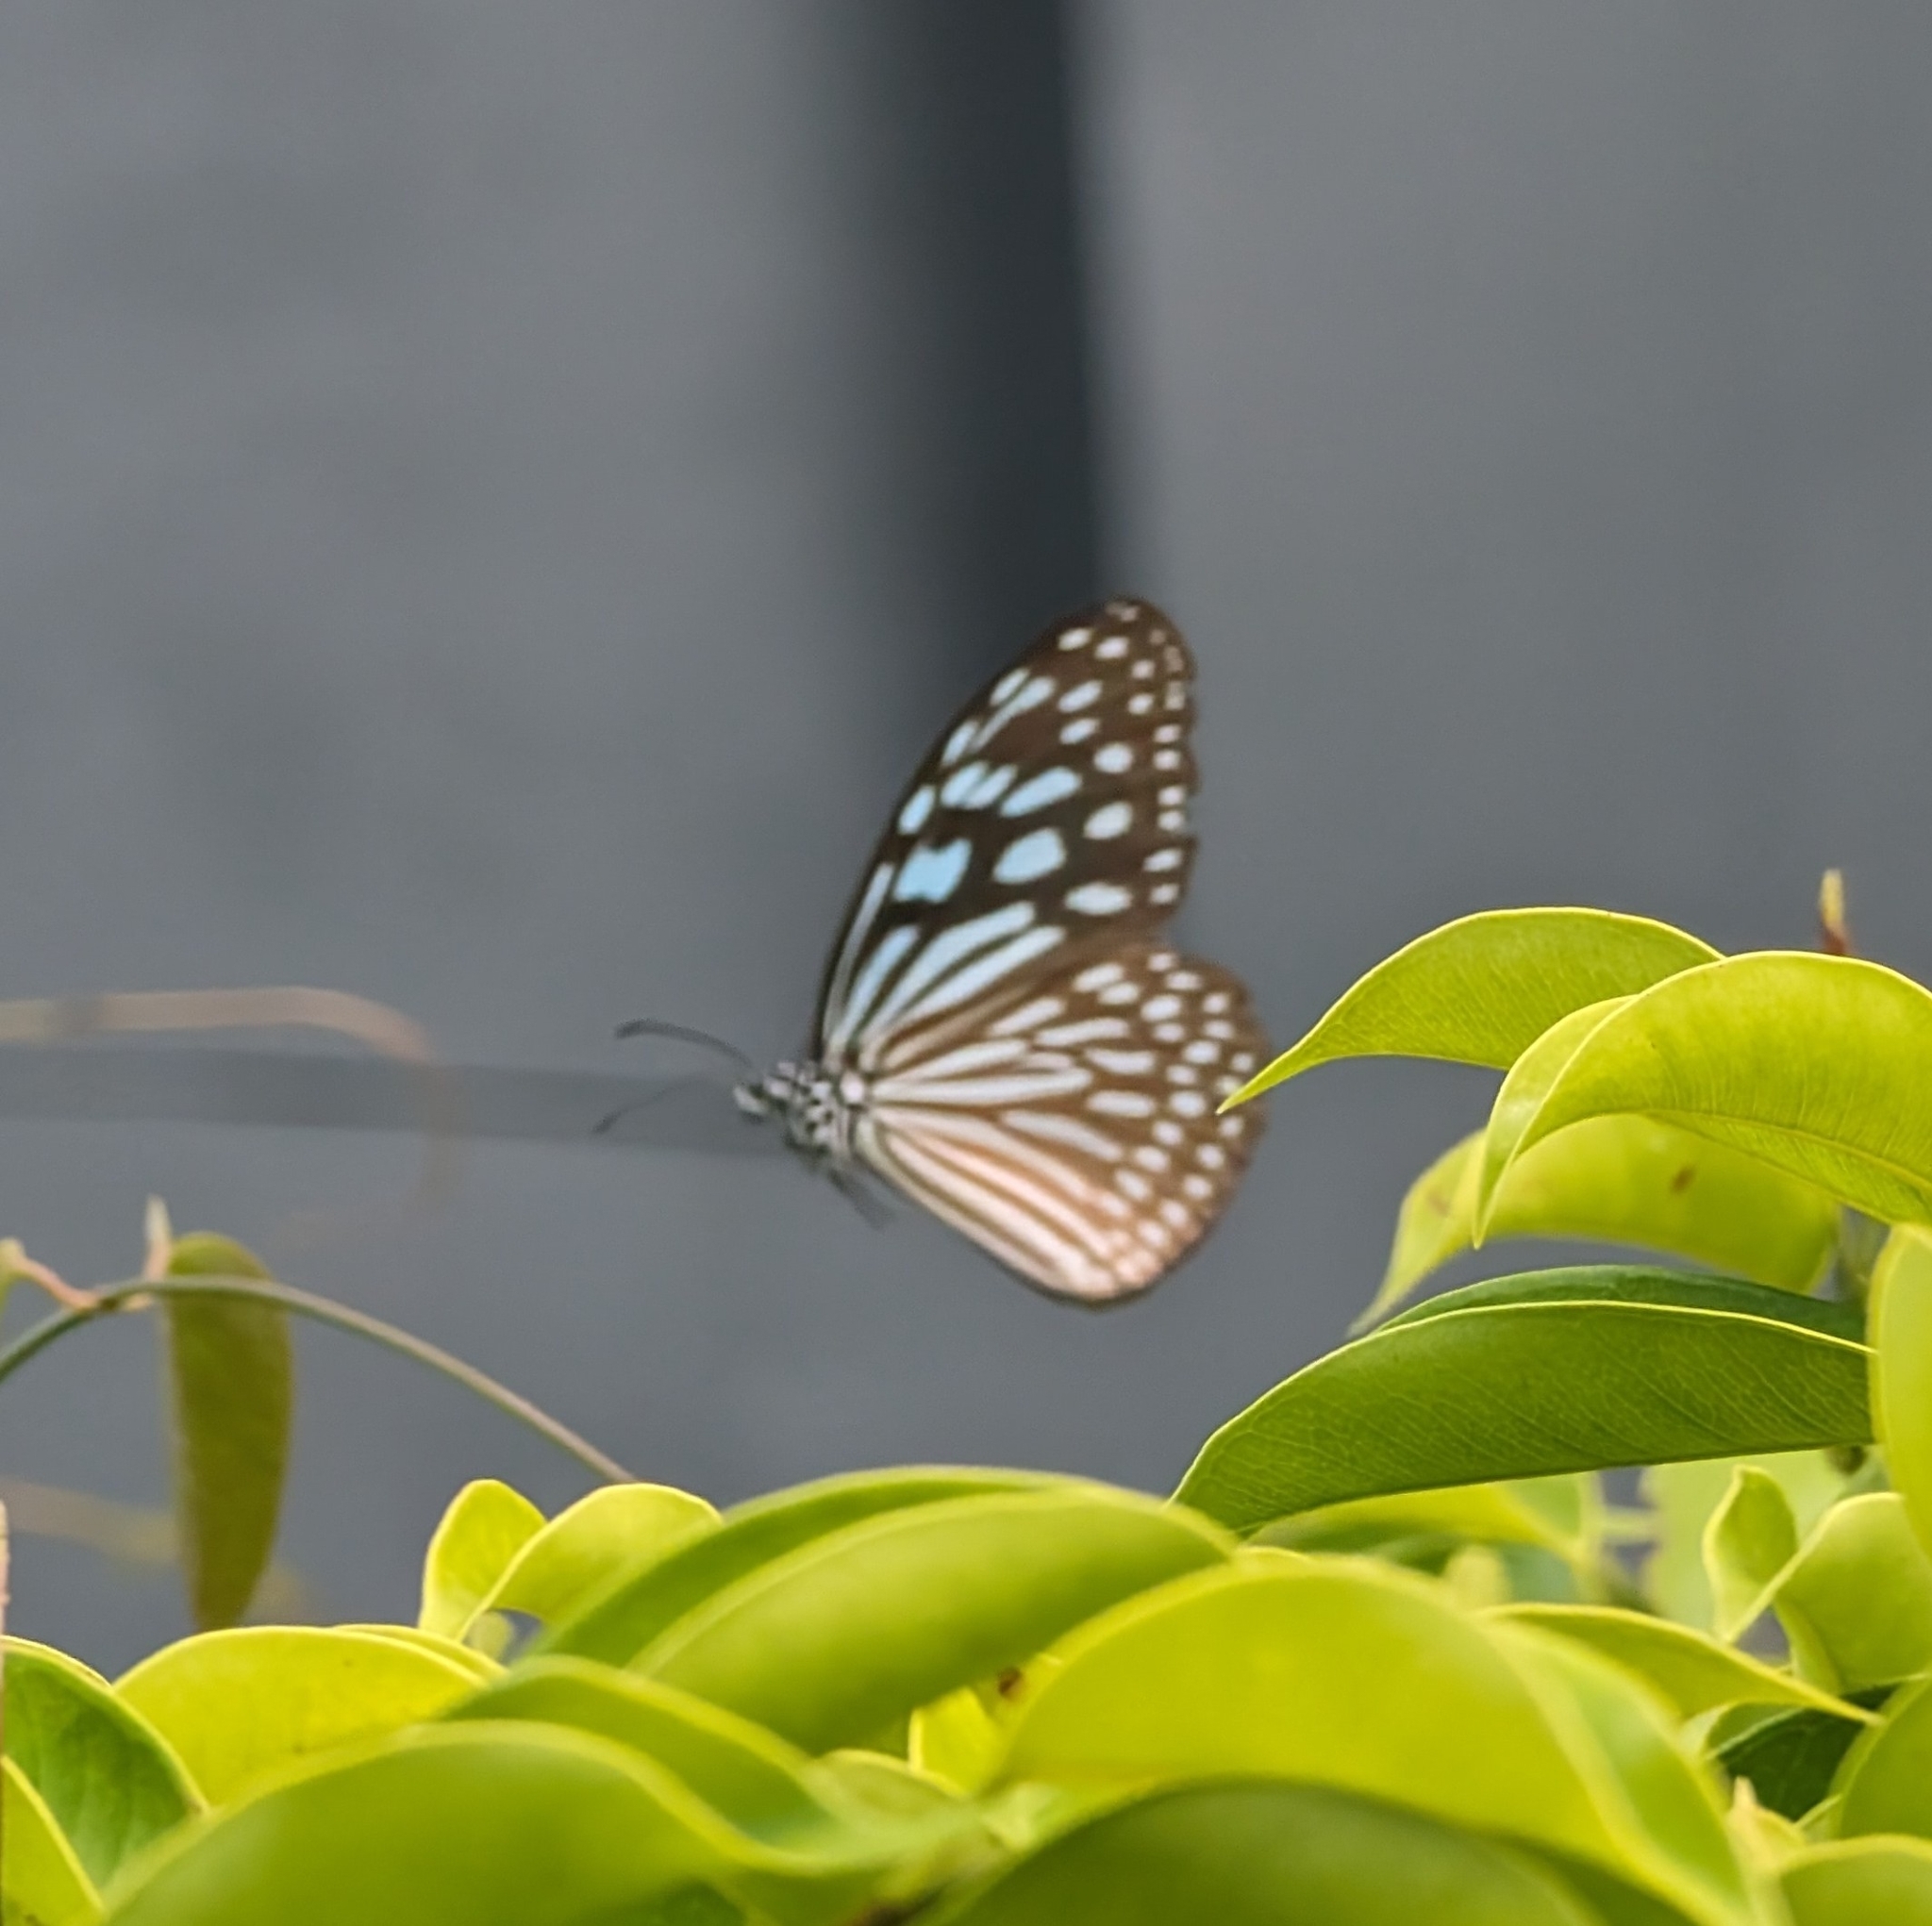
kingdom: Animalia
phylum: Arthropoda
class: Insecta
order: Lepidoptera
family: Nymphalidae
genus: Ideopsis
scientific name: Ideopsis vulgaris
